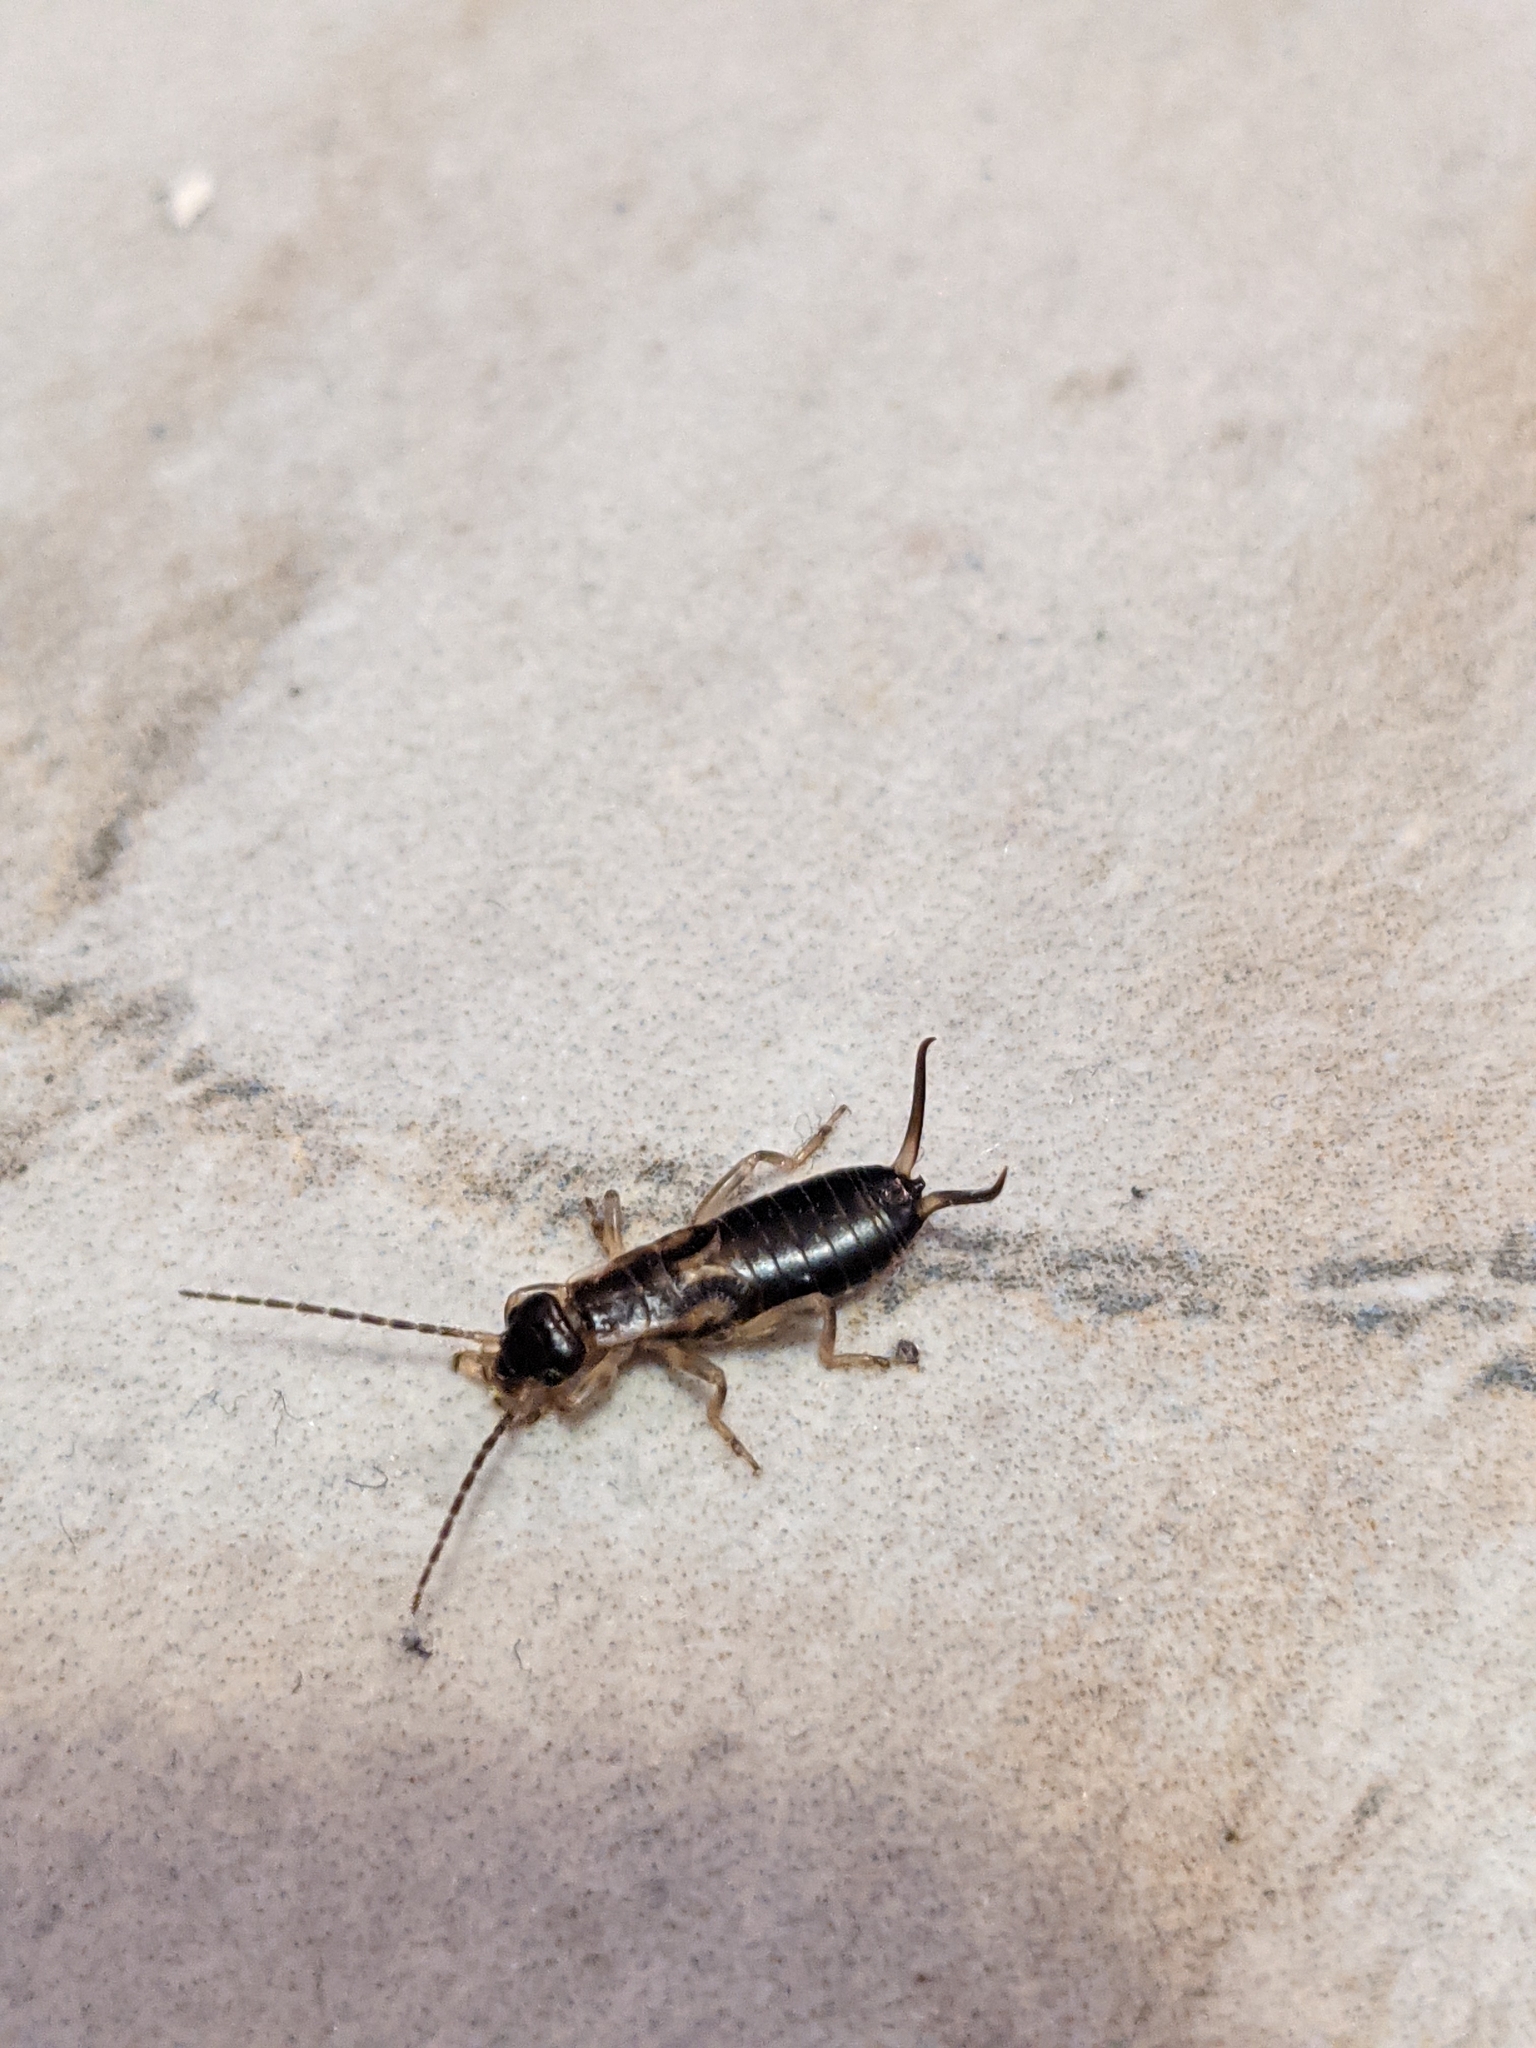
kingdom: Animalia
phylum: Arthropoda
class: Insecta
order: Dermaptera
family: Forficulidae
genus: Forficula
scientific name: Forficula
